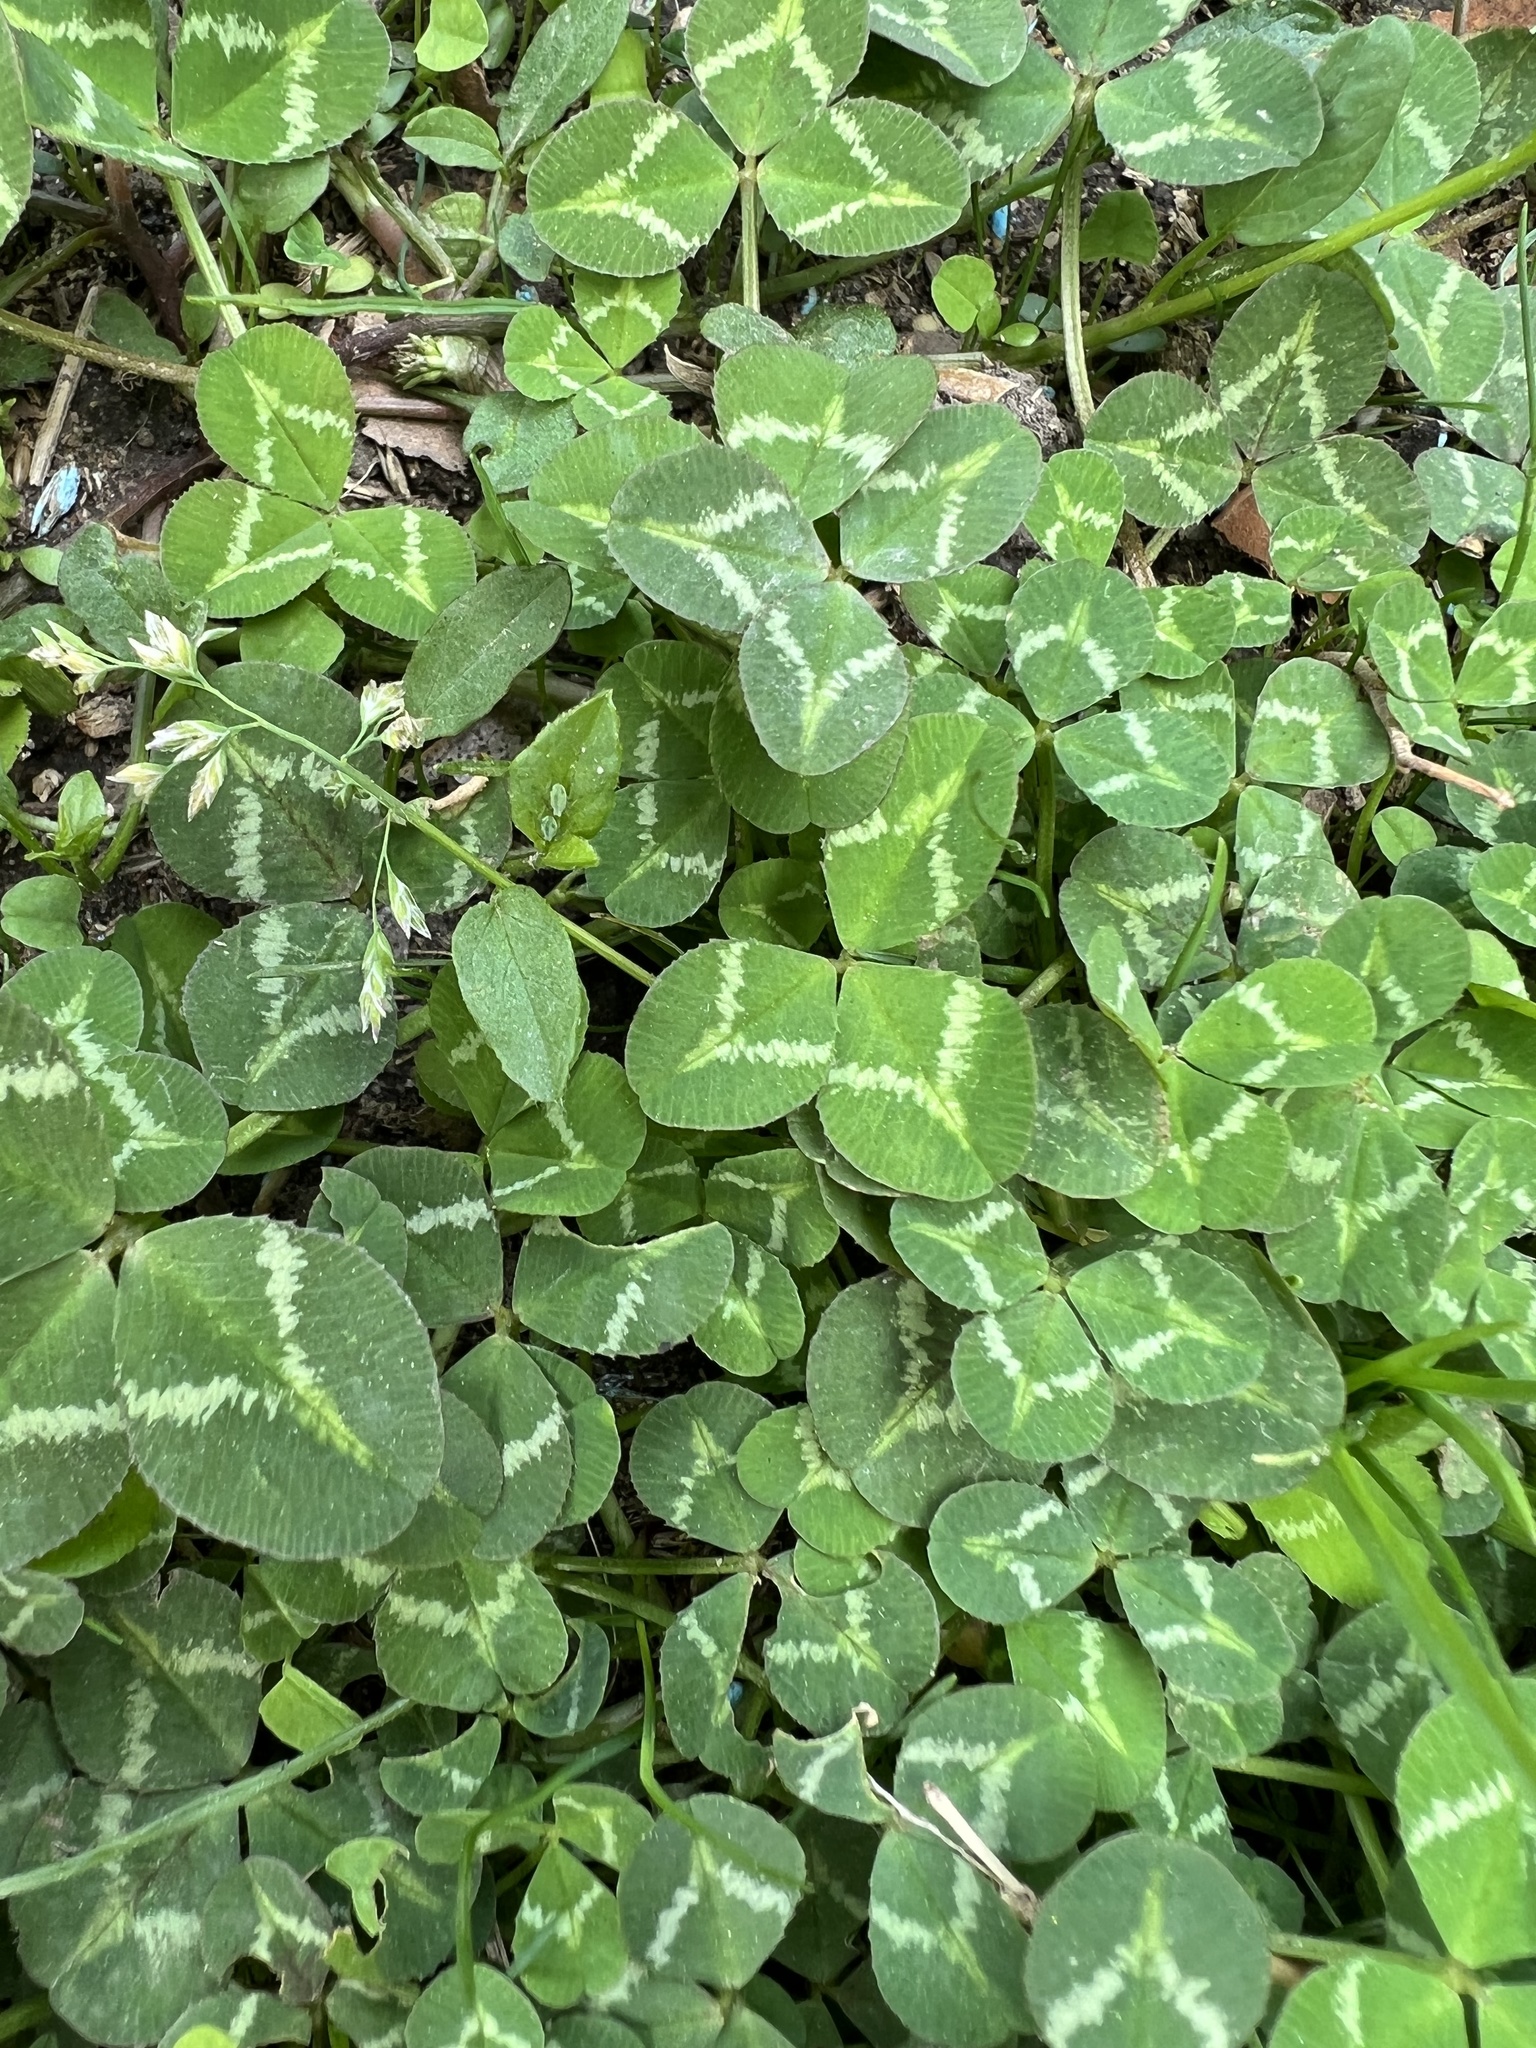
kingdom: Plantae
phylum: Tracheophyta
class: Magnoliopsida
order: Fabales
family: Fabaceae
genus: Trifolium
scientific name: Trifolium repens
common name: White clover
